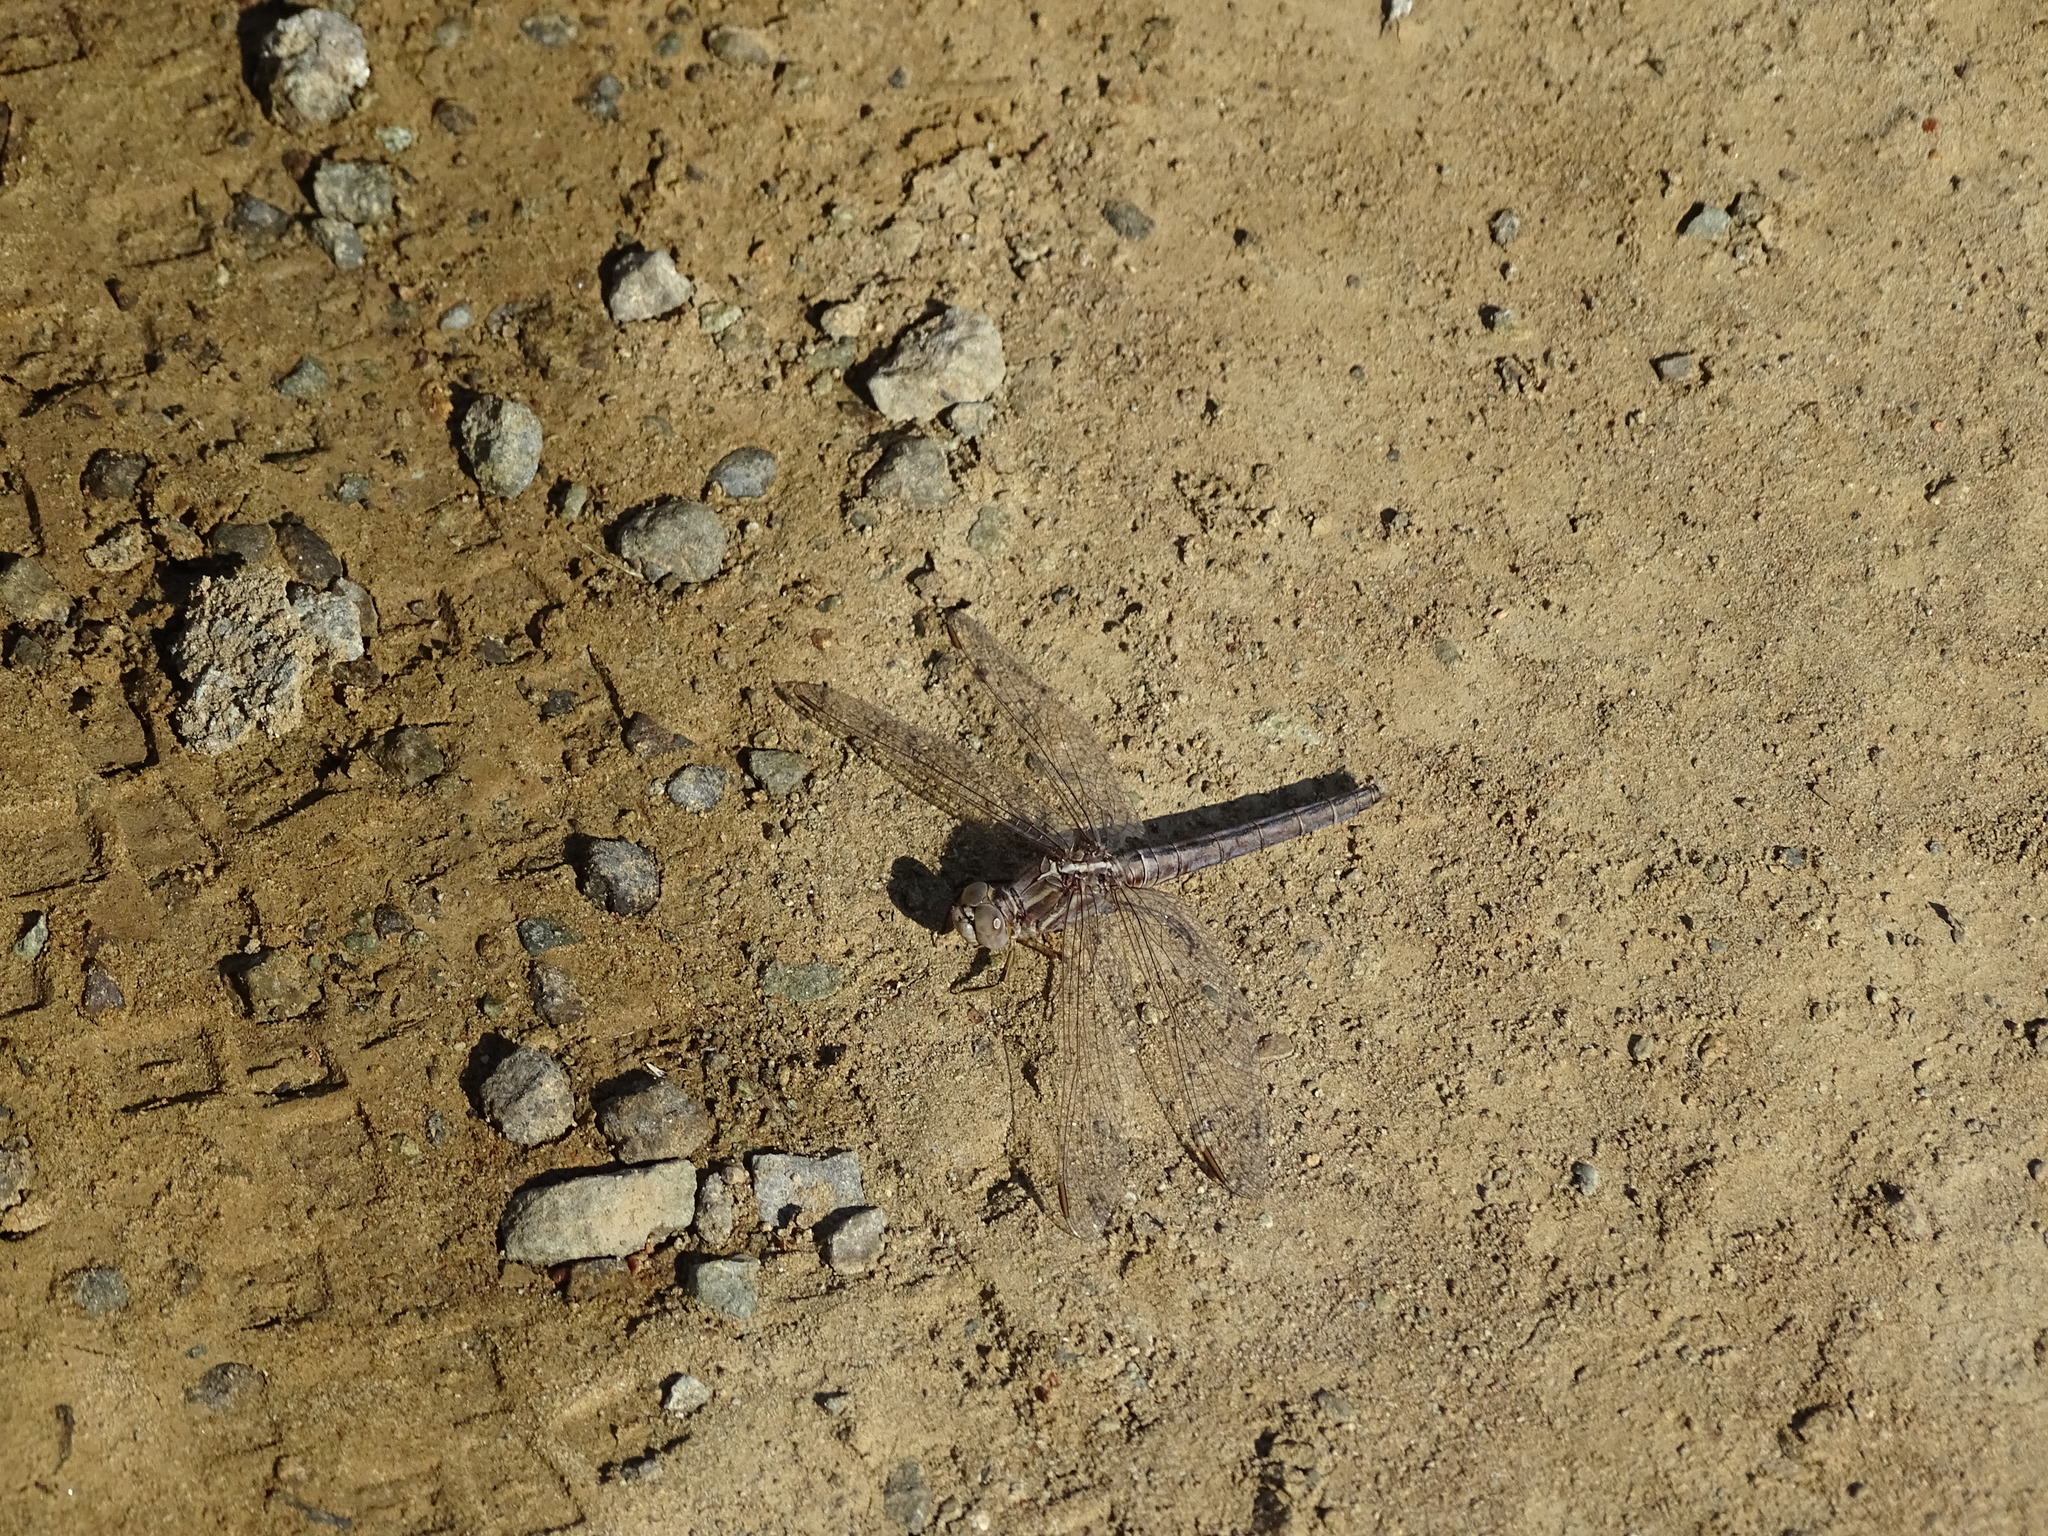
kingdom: Animalia
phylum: Arthropoda
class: Insecta
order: Odonata
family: Libellulidae
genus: Orthetrum
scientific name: Orthetrum taeniolatum
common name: Small skimmer
